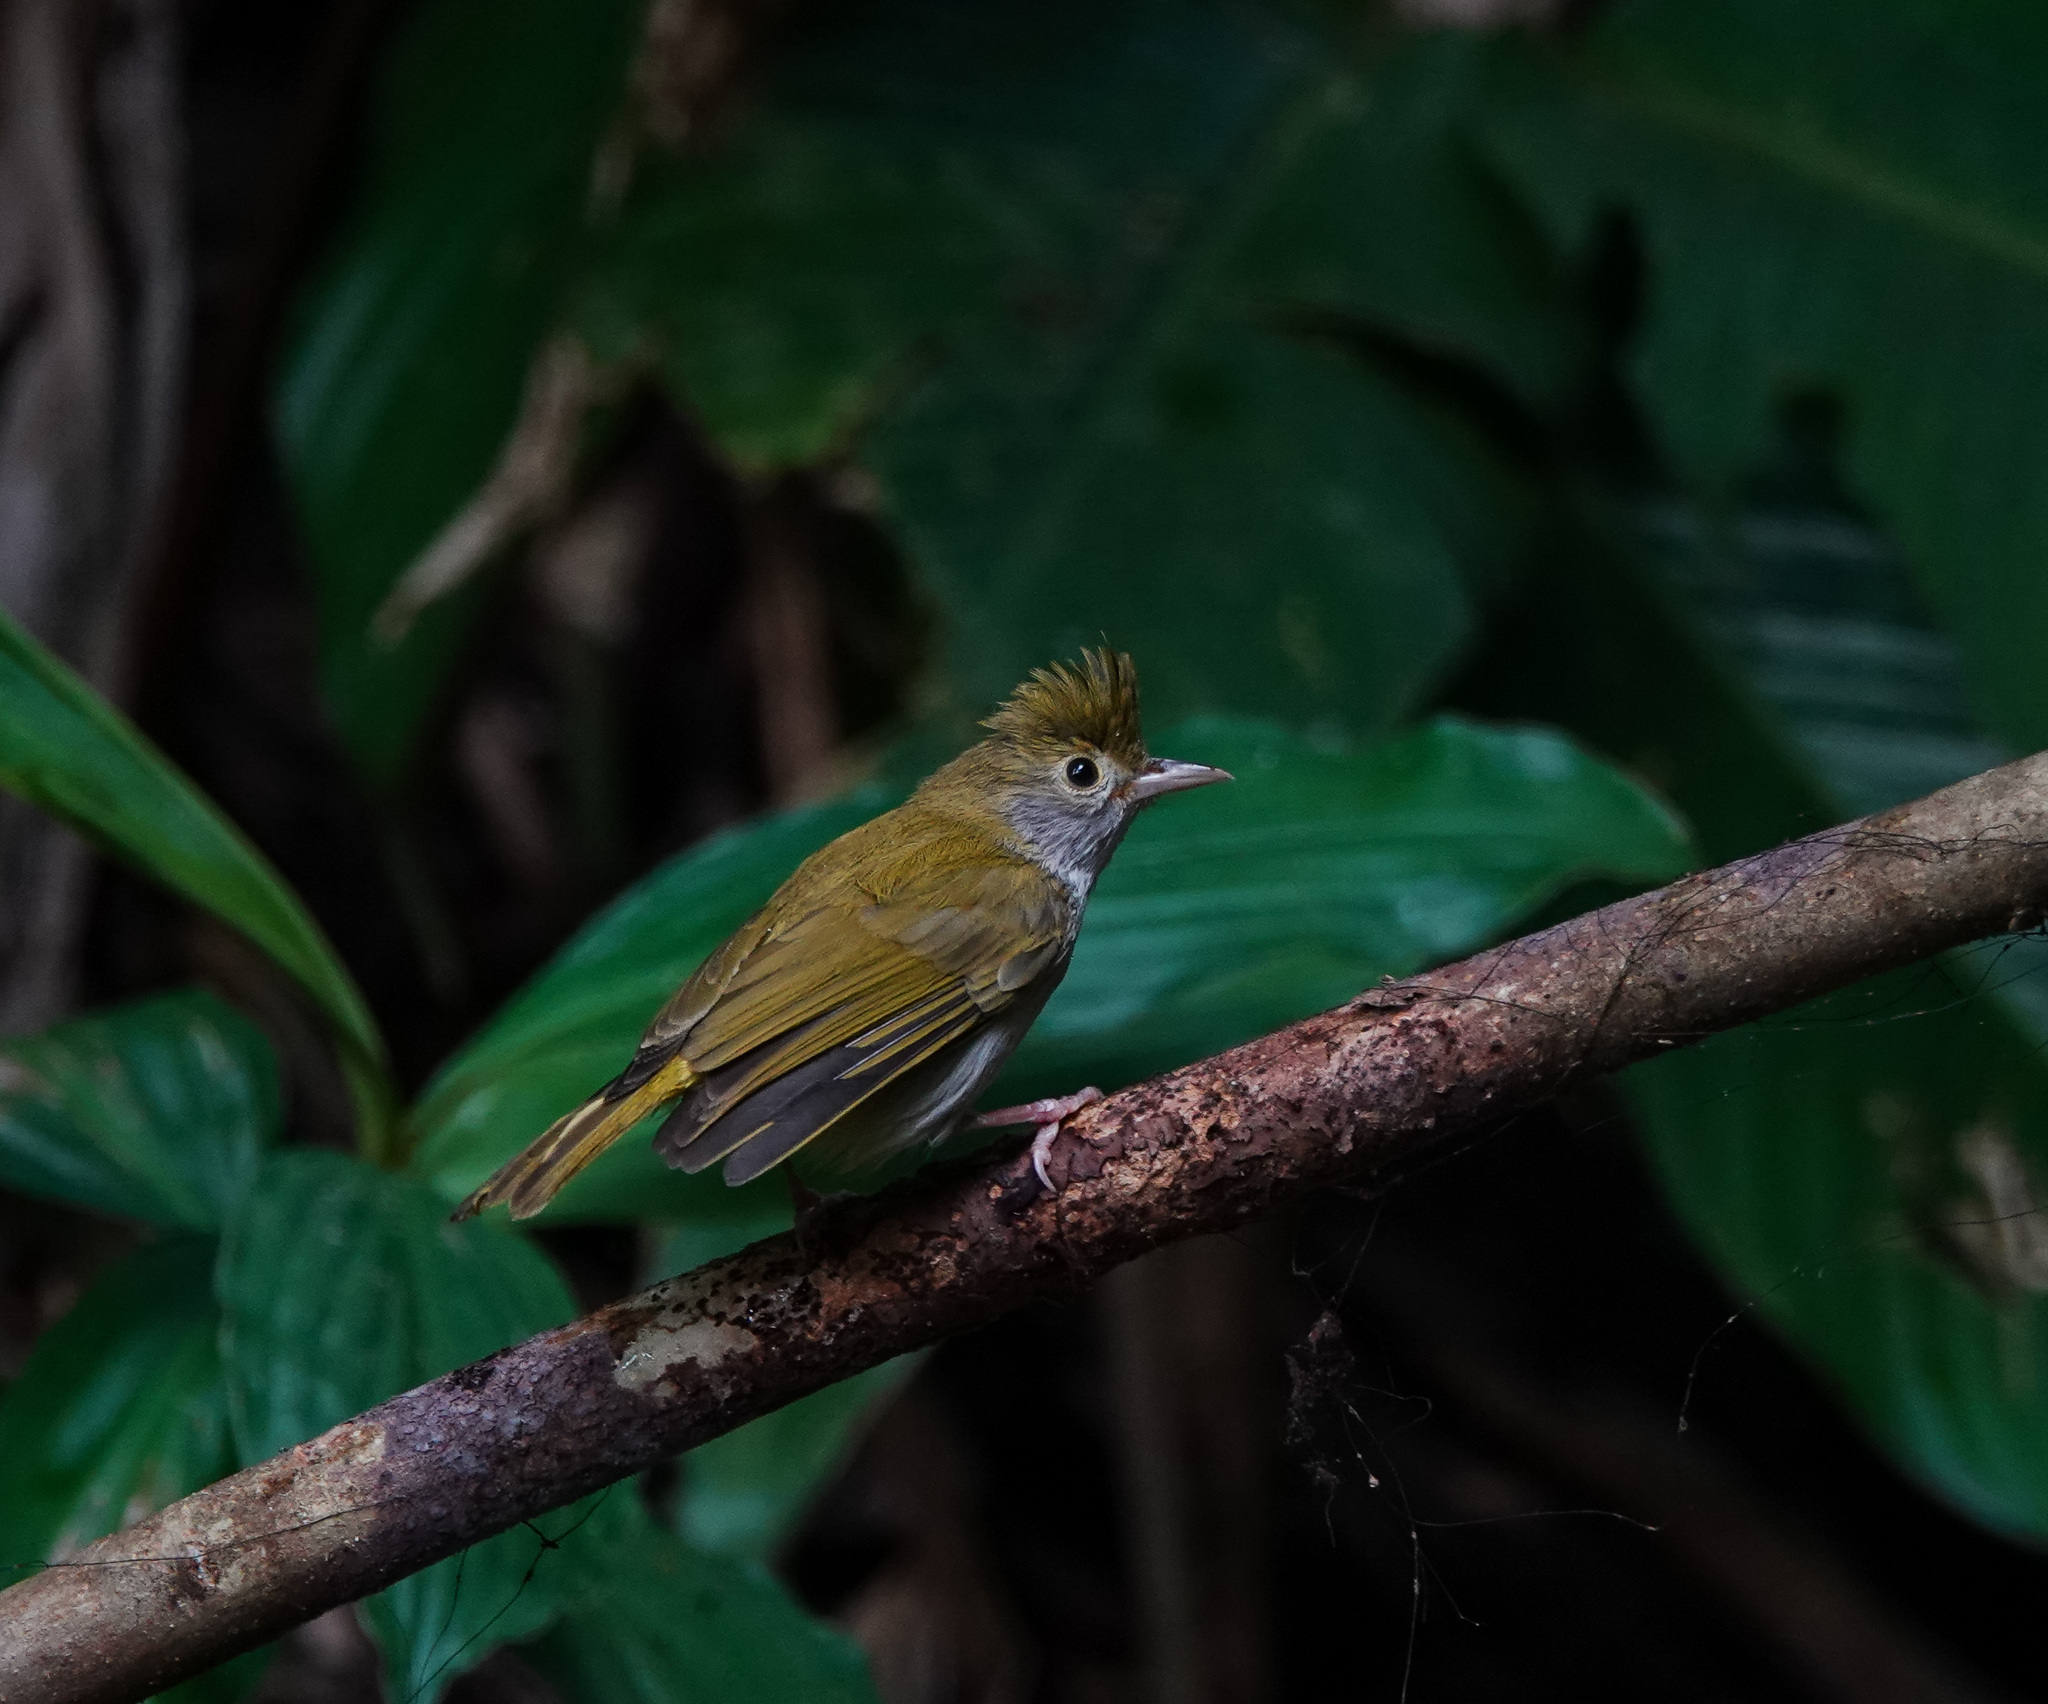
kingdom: Animalia
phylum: Chordata
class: Aves
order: Passeriformes
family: Vireonidae
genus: Erpornis
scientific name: Erpornis zantholeuca
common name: White-bellied erpornis
